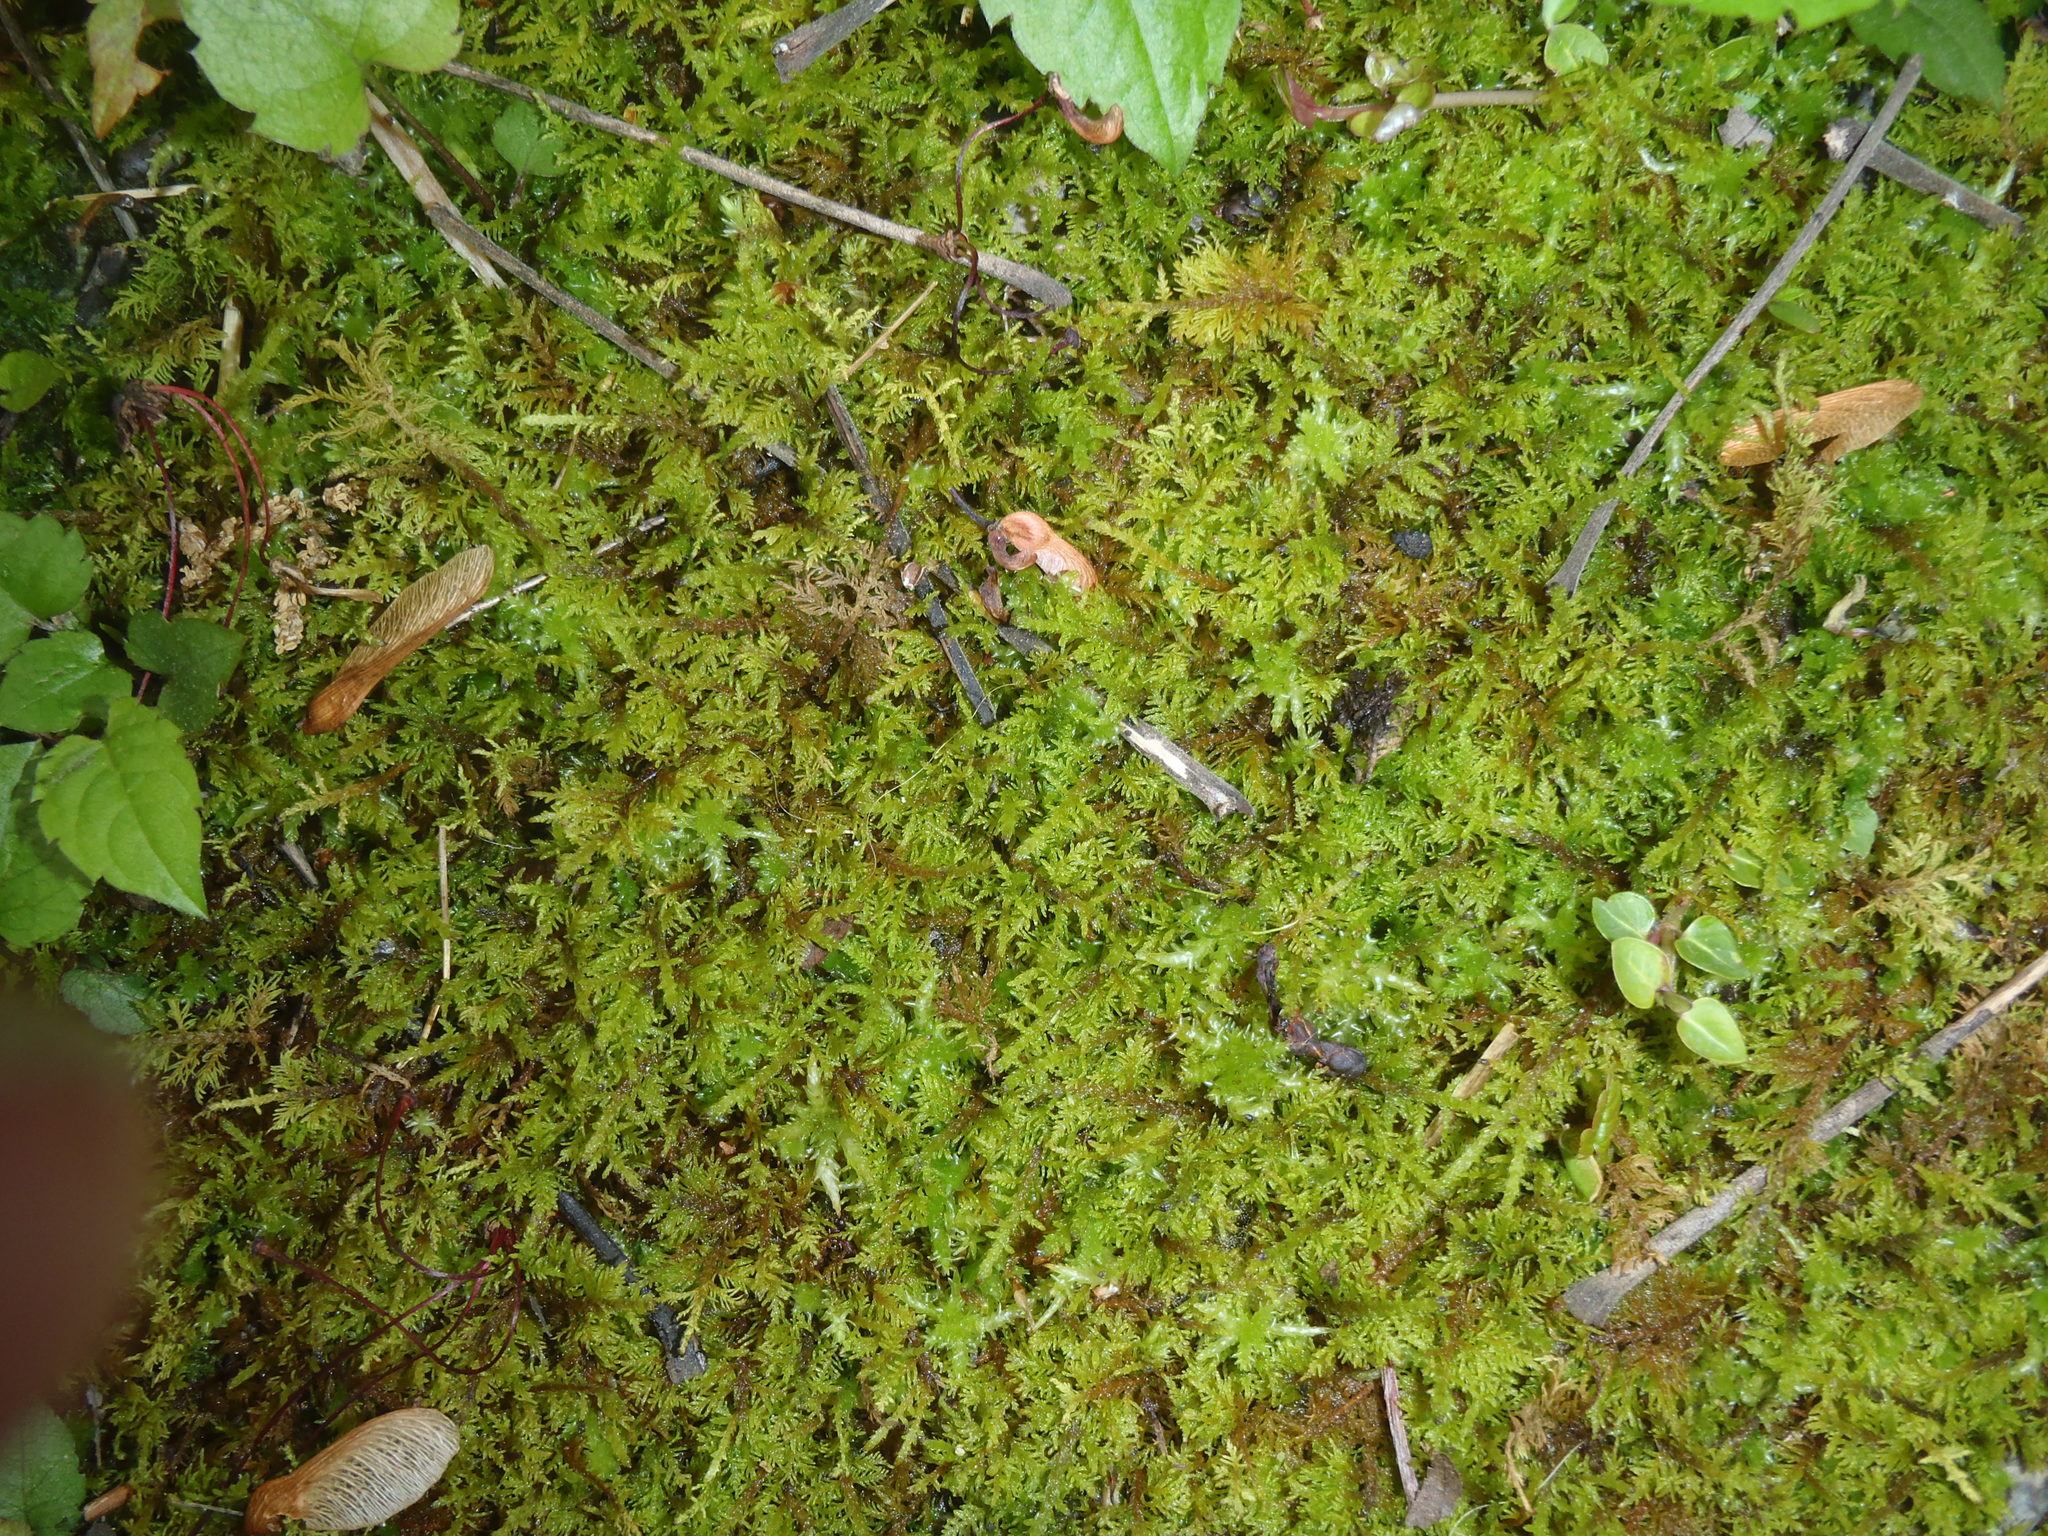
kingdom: Plantae
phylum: Bryophyta
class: Bryopsida
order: Hypnales
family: Thuidiaceae
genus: Thuidium
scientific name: Thuidium delicatulum
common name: Delicate fern moss
